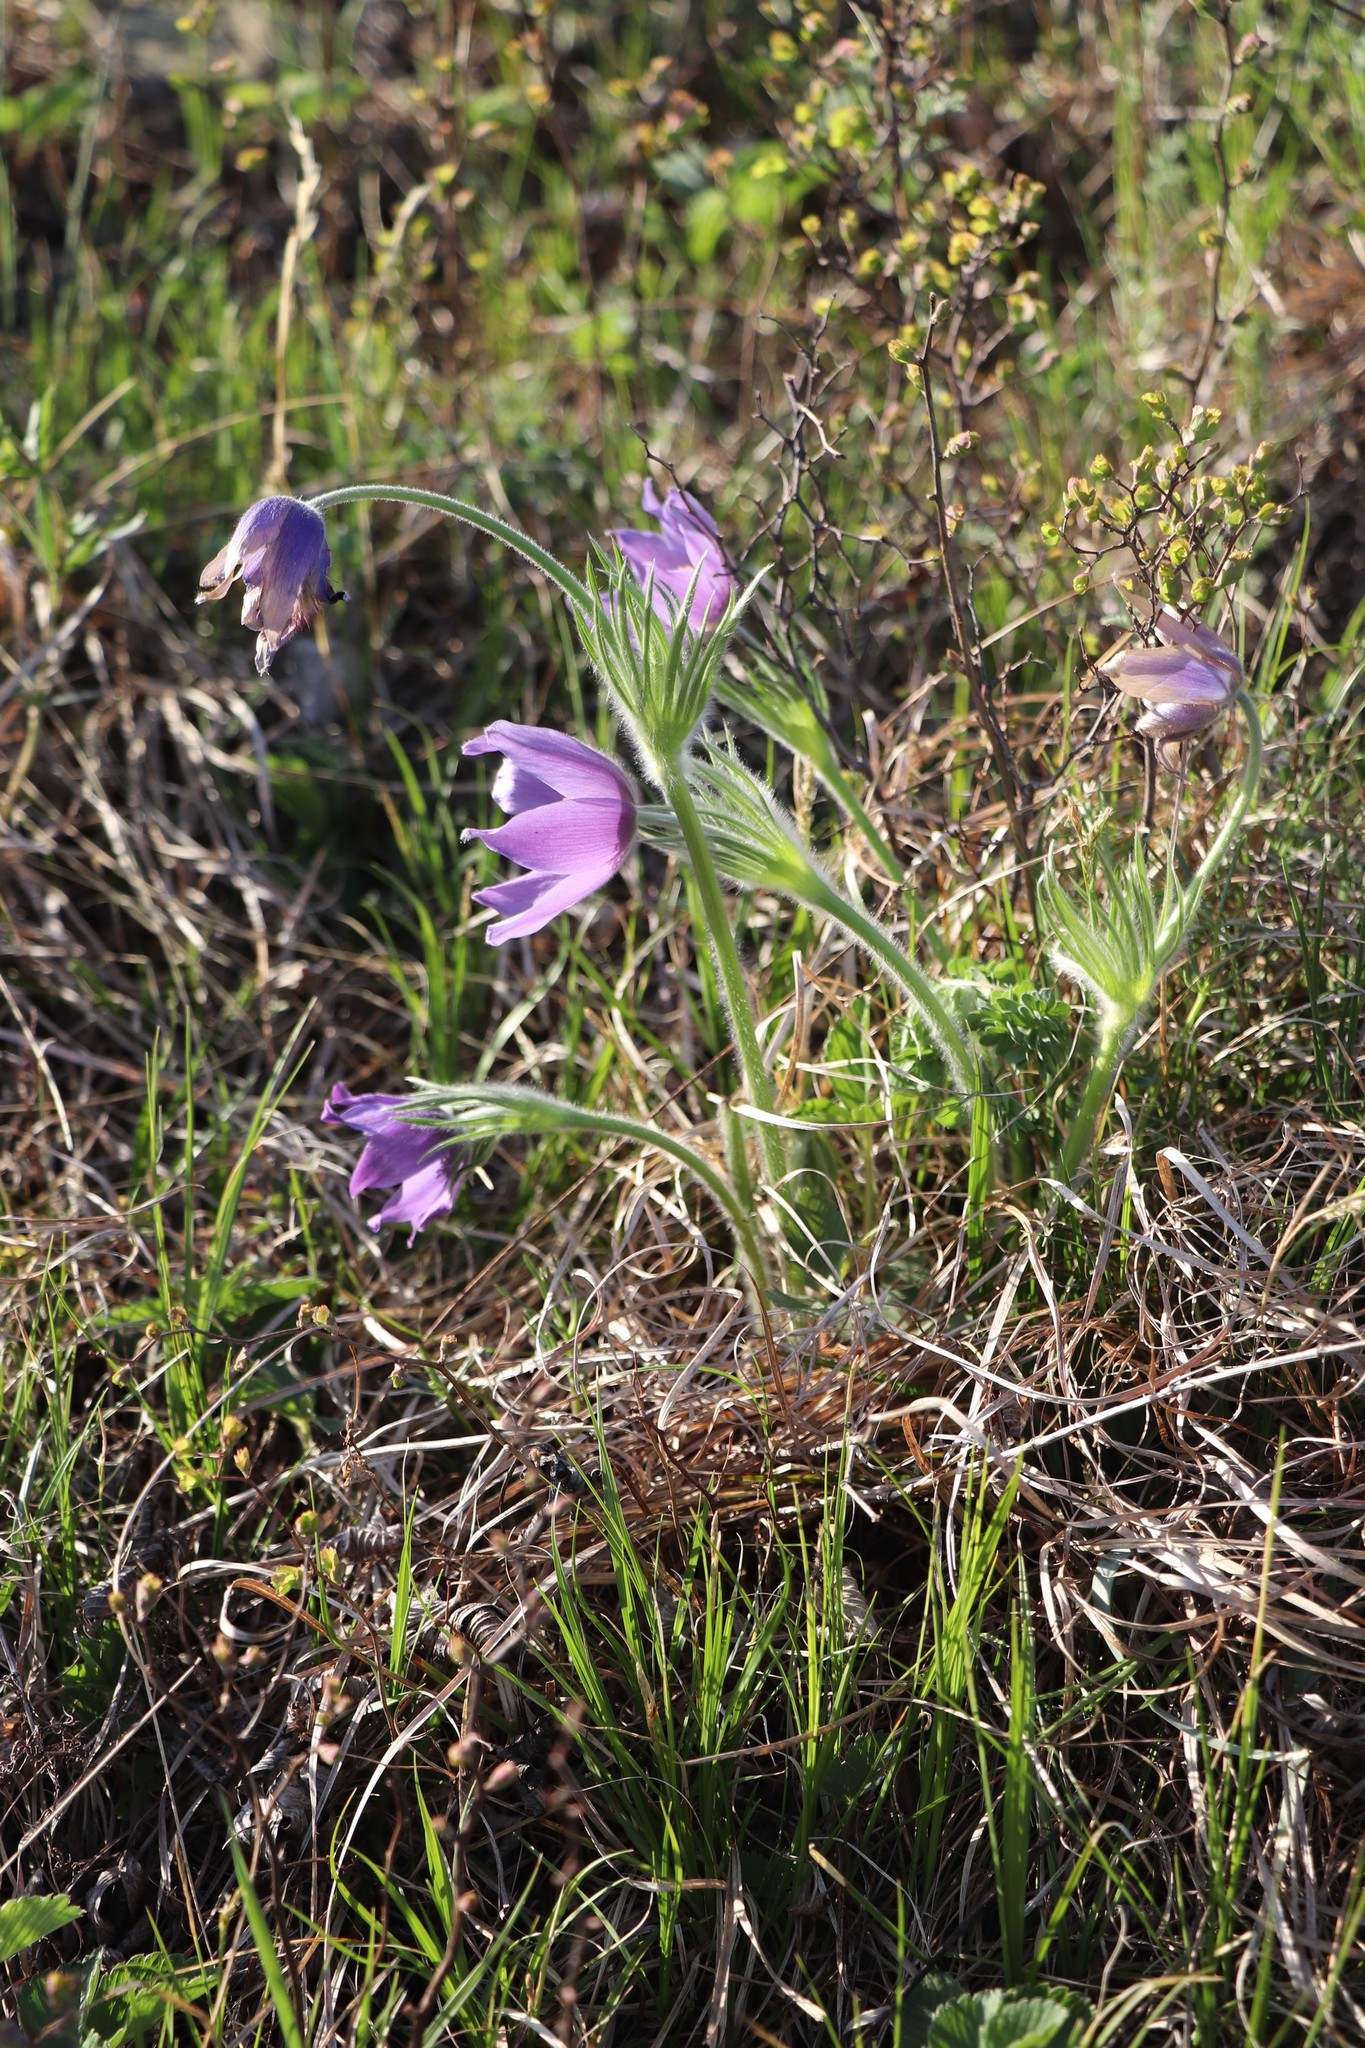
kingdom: Plantae
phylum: Tracheophyta
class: Magnoliopsida
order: Ranunculales
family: Ranunculaceae
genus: Pulsatilla
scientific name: Pulsatilla patens
